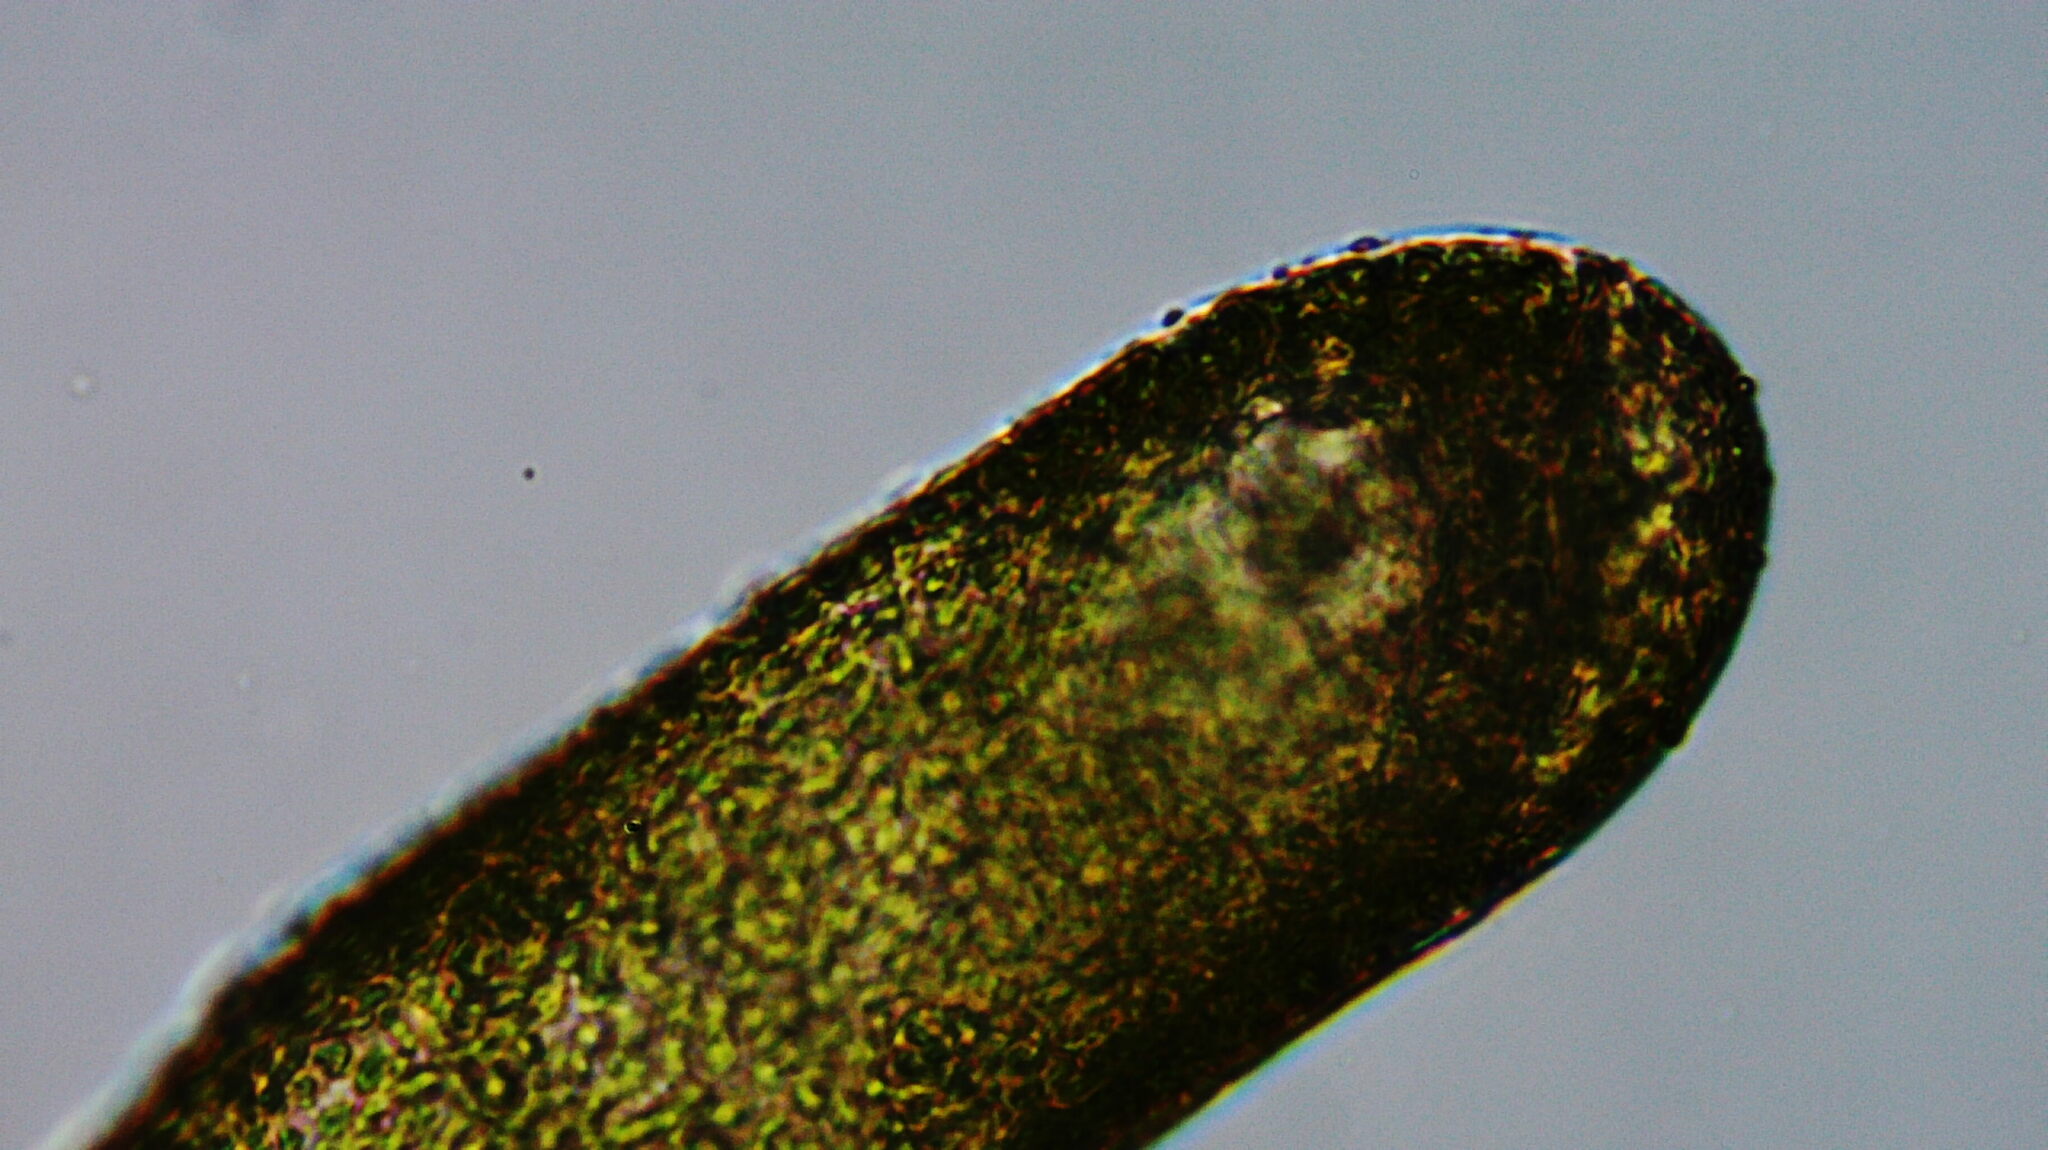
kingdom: Chromista
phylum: Ochrophyta
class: Xanthophyceae
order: Vaucheriales
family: Vaucheriaceae
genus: Vaucheria
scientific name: Vaucheria
